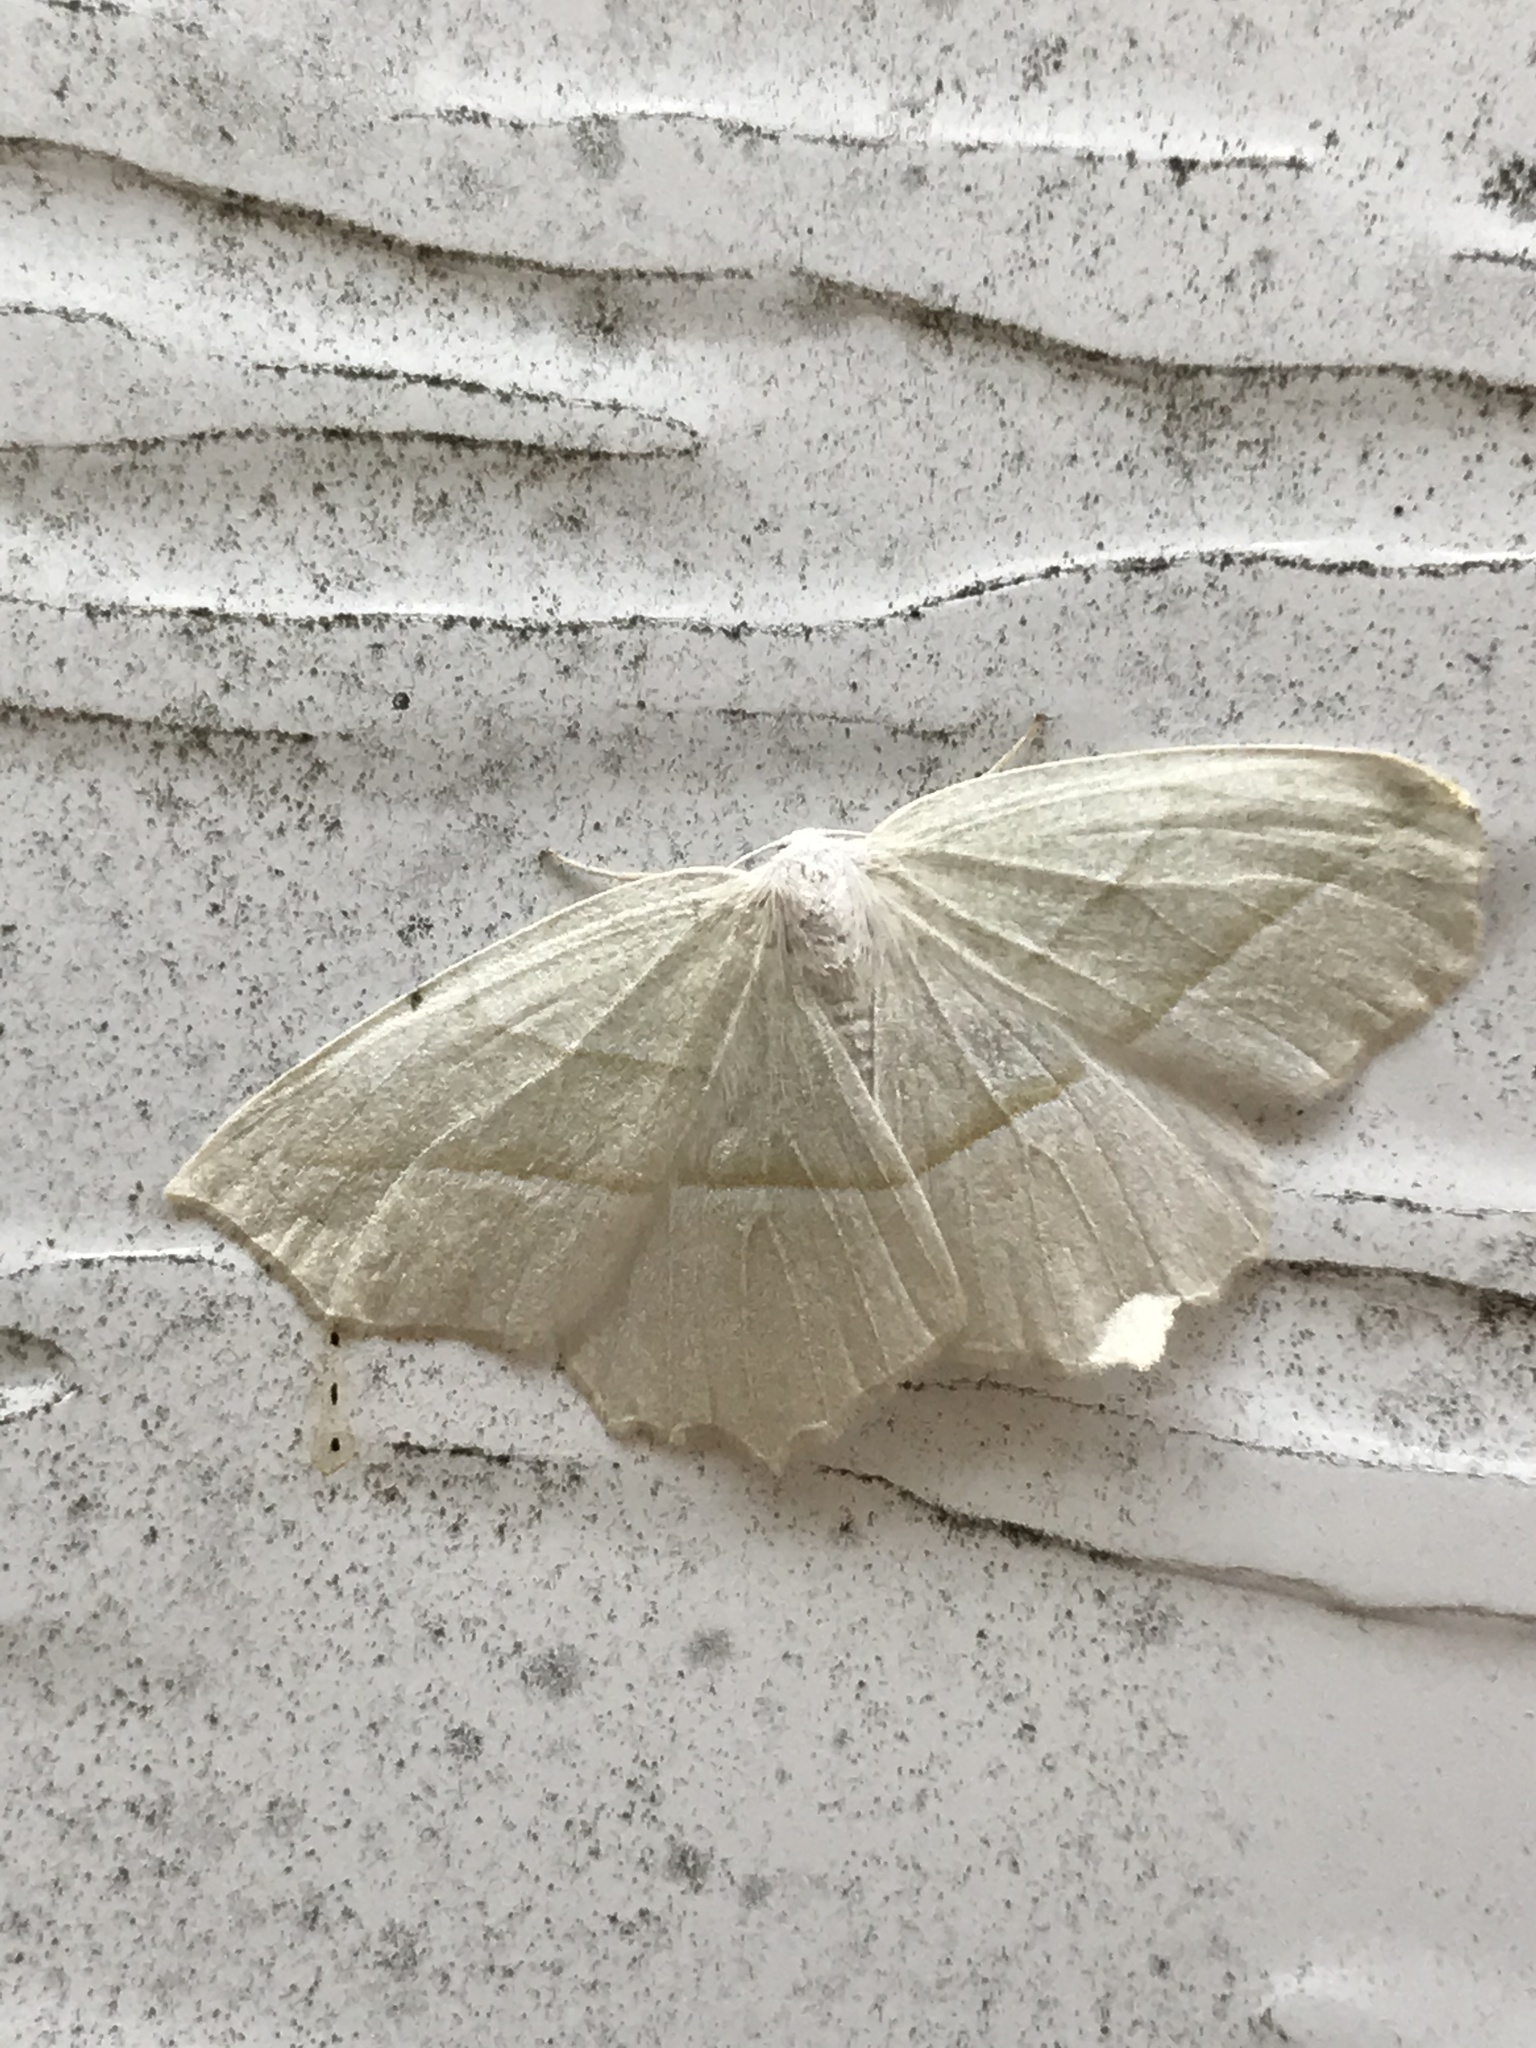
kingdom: Animalia
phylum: Arthropoda
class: Insecta
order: Lepidoptera
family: Geometridae
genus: Campaea
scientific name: Campaea perlata
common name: Fringed looper
